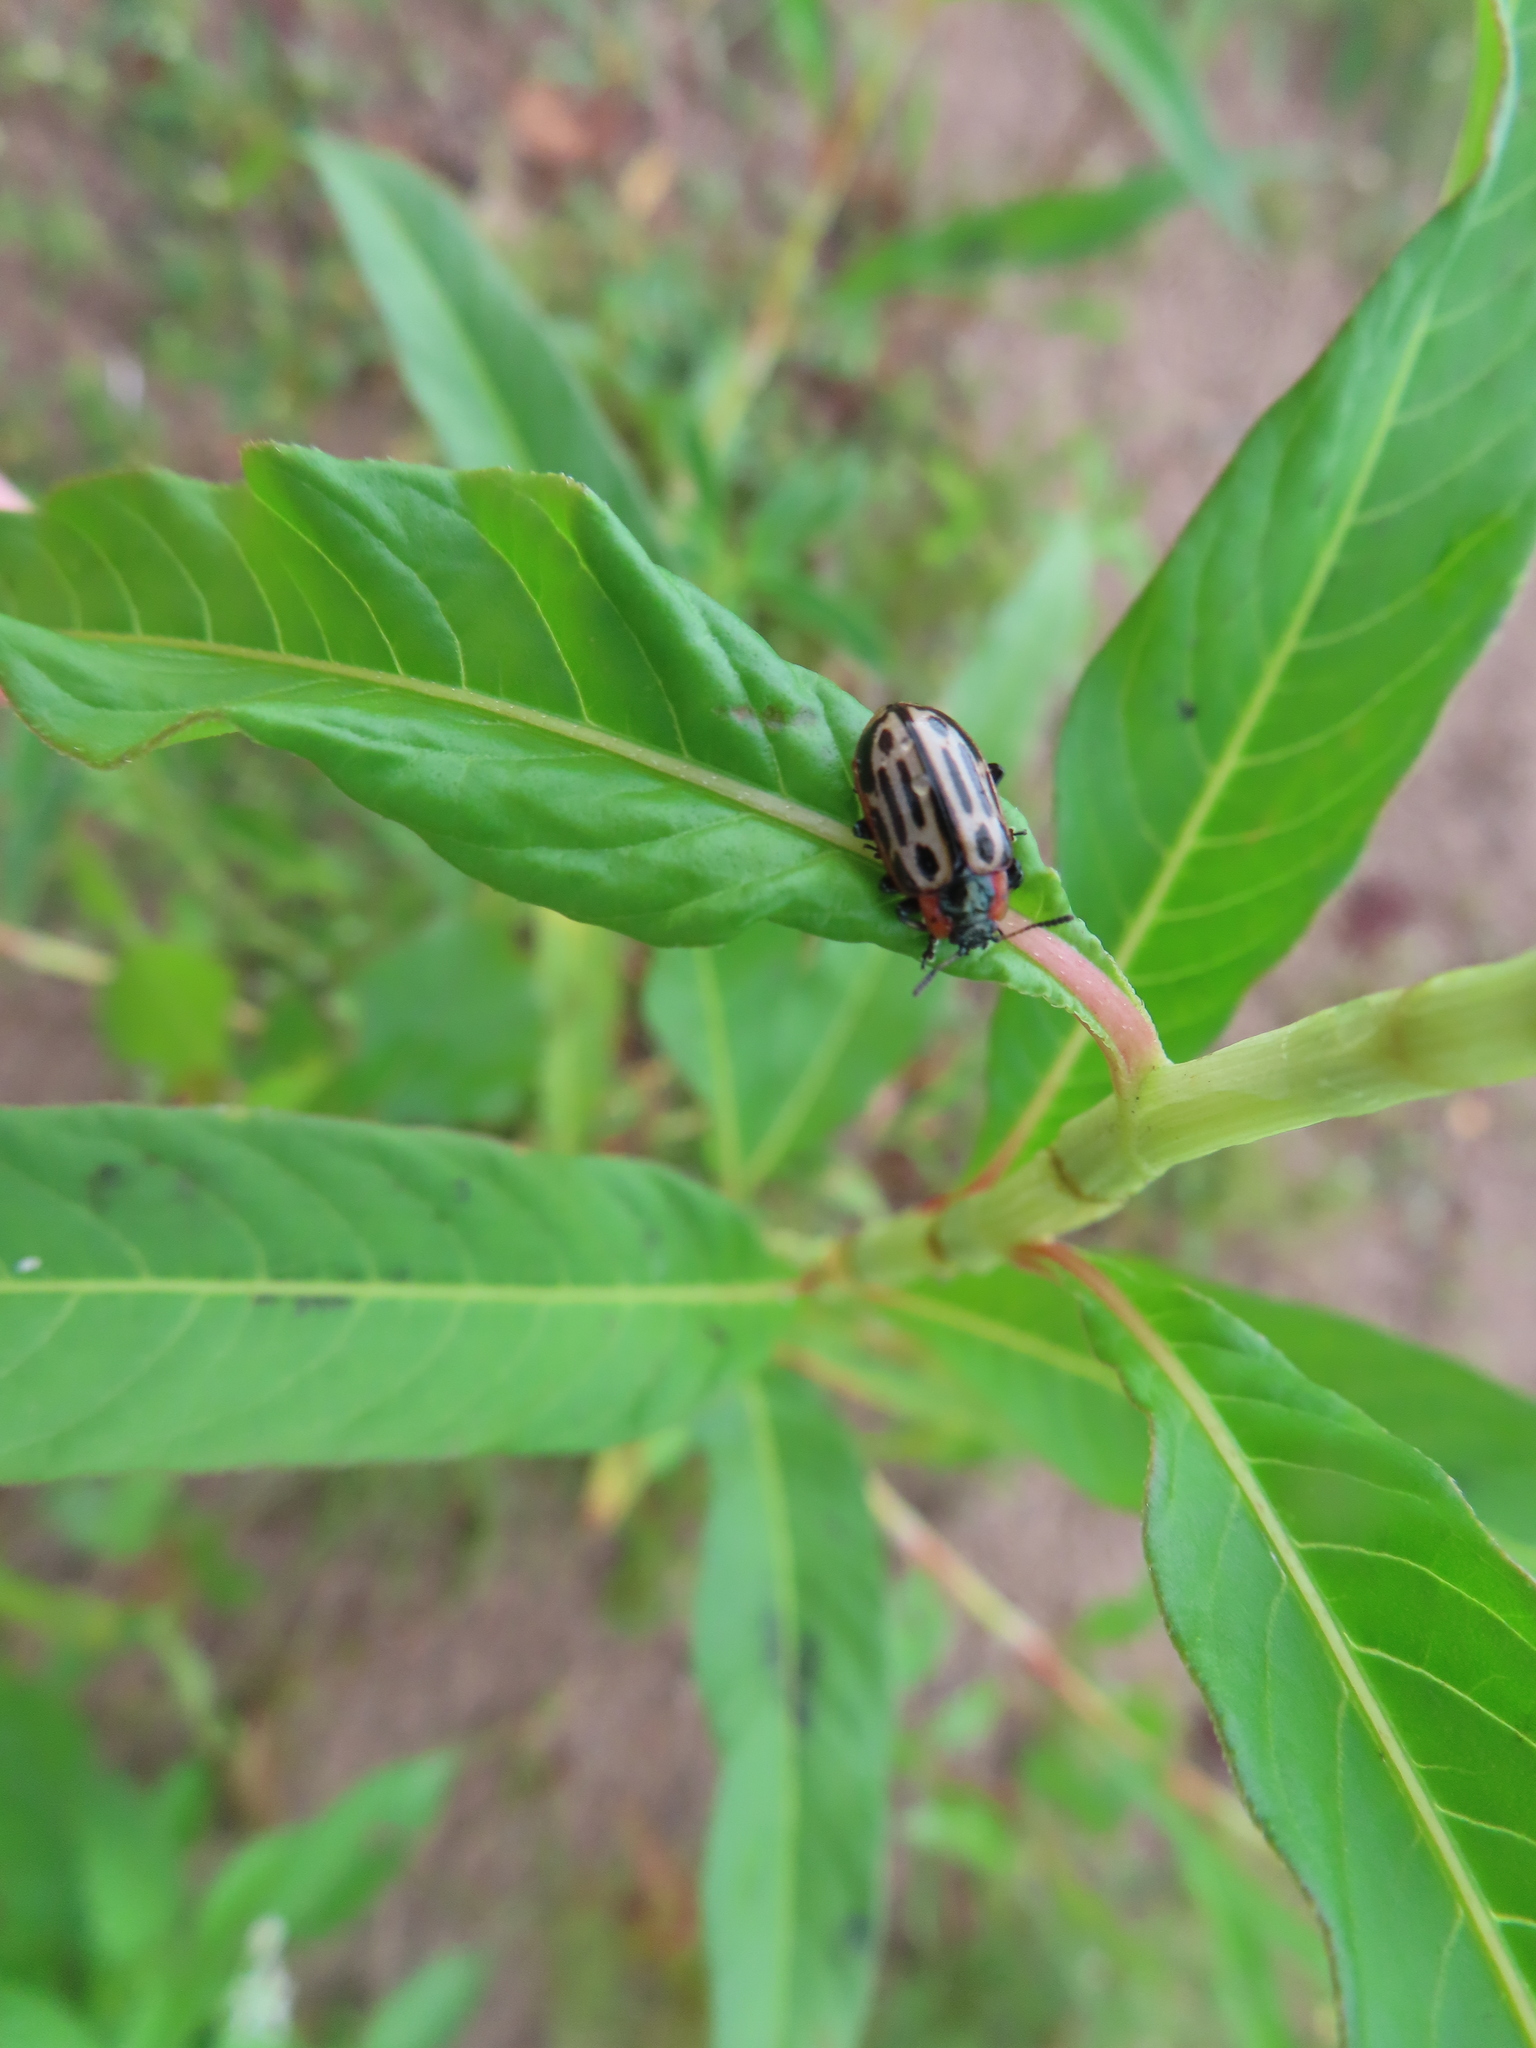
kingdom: Animalia
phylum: Arthropoda
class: Insecta
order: Coleoptera
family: Chrysomelidae
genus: Aethiopocassis
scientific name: Aethiopocassis scripta
